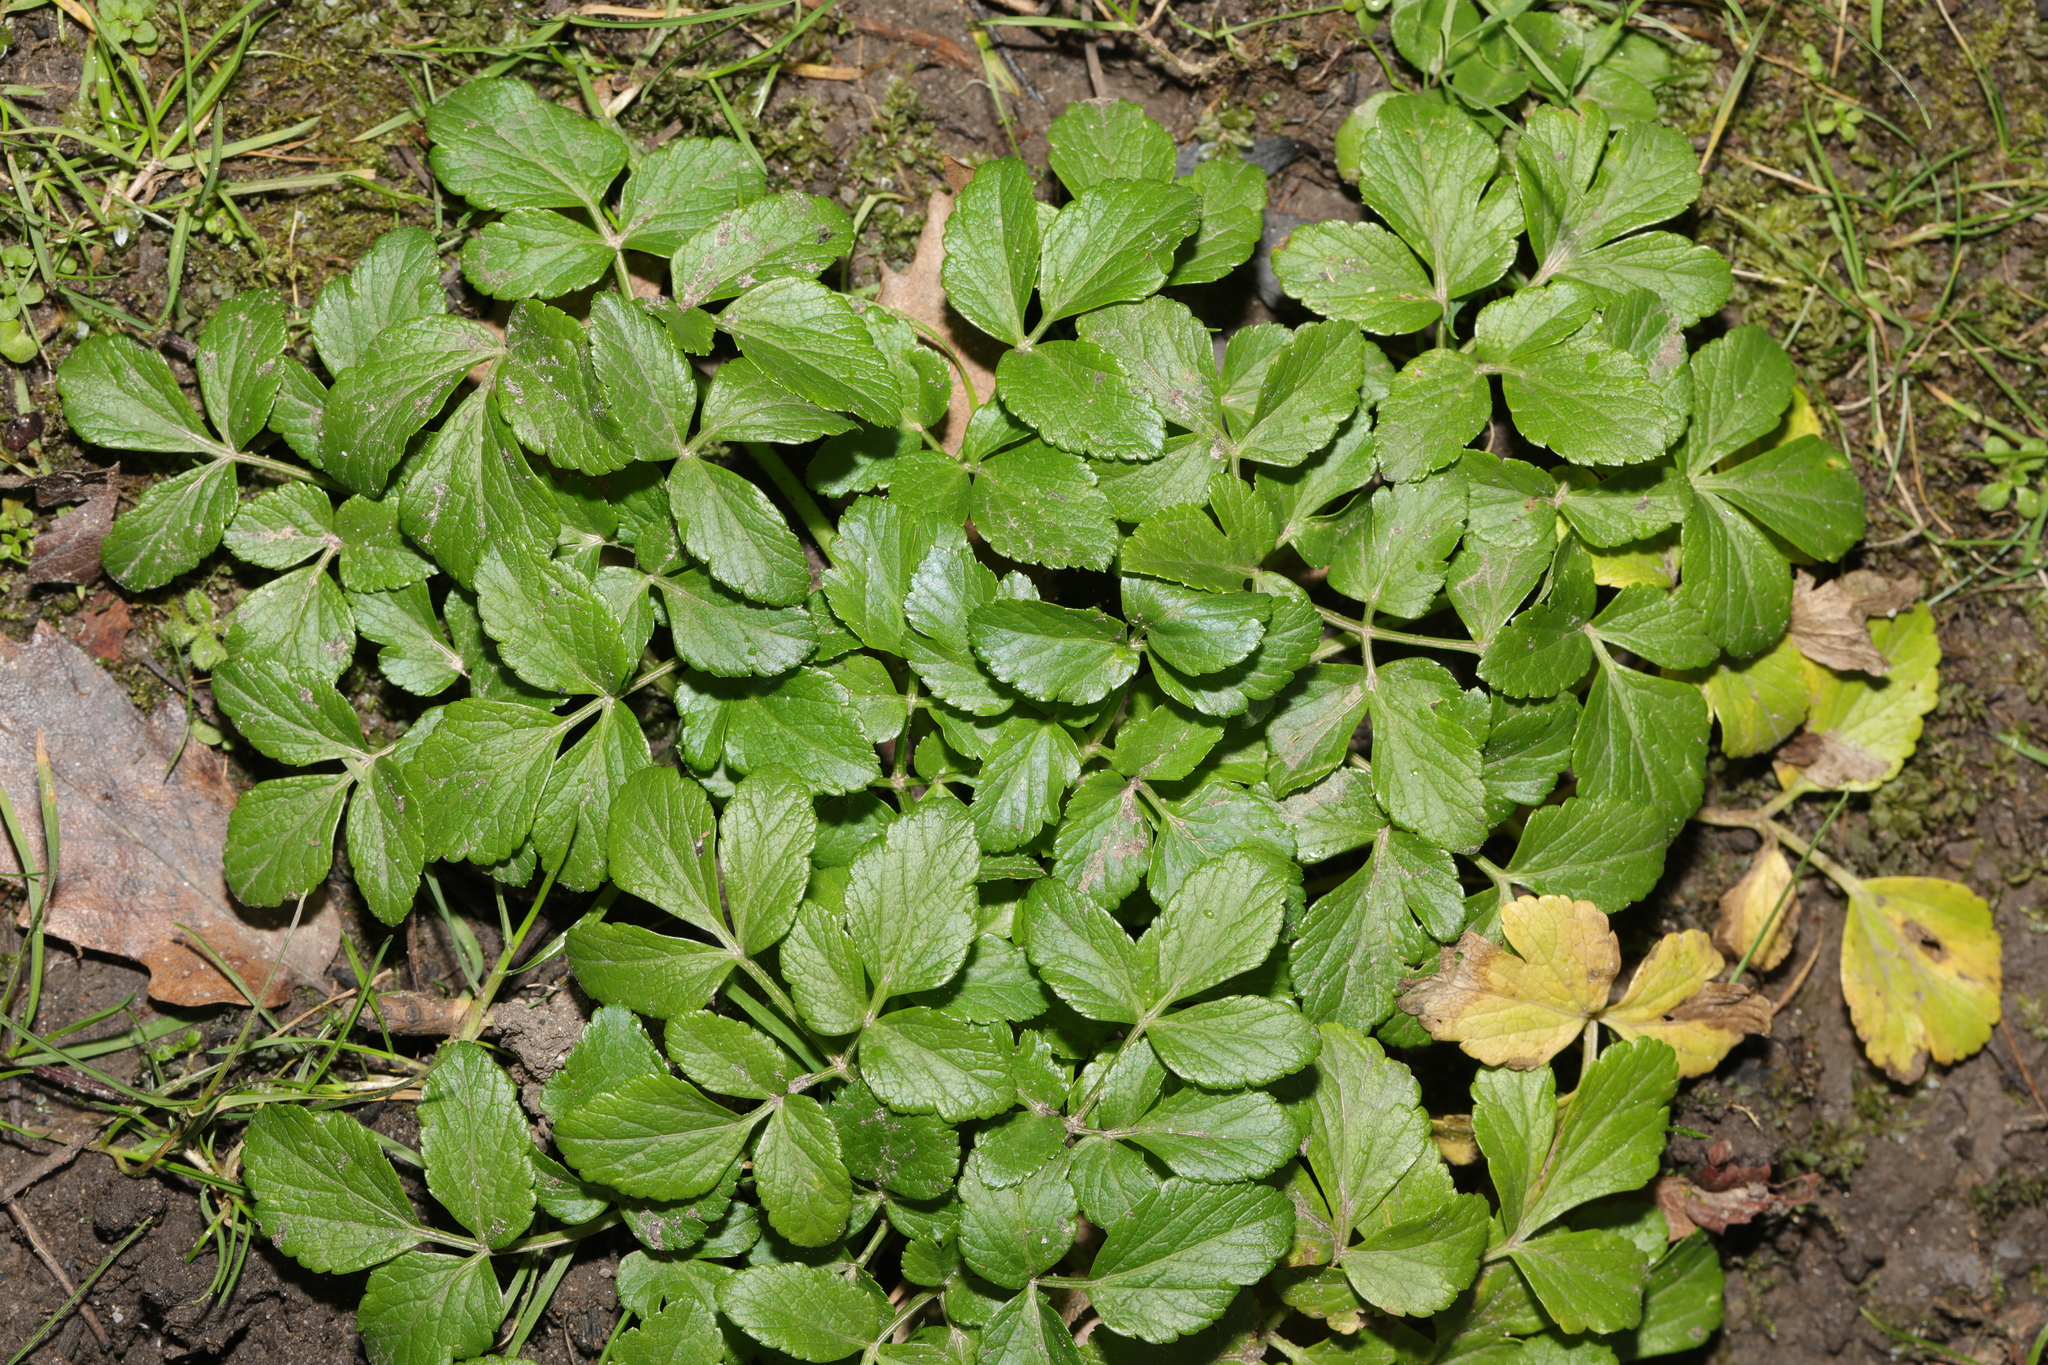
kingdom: Plantae
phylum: Tracheophyta
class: Magnoliopsida
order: Apiales
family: Apiaceae
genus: Smyrnium
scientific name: Smyrnium olusatrum
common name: Alexanders
